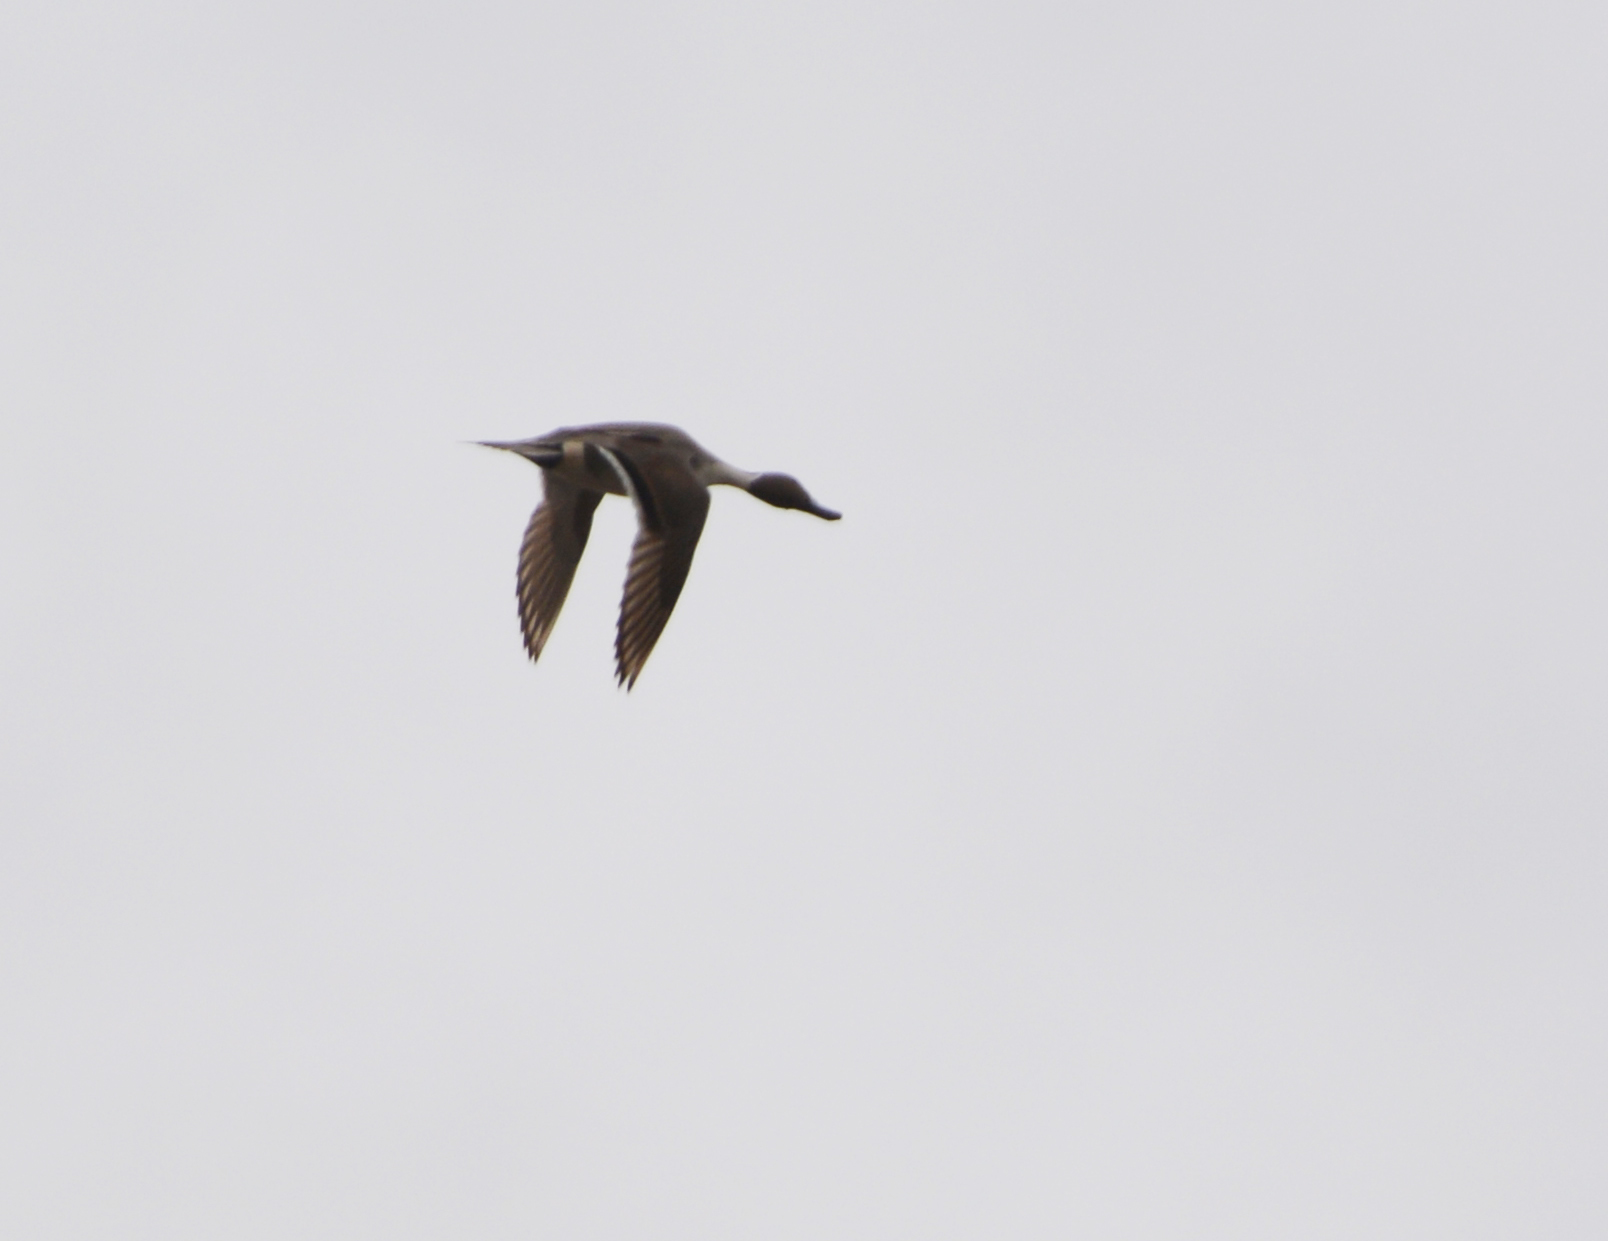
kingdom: Animalia
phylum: Chordata
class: Aves
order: Anseriformes
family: Anatidae
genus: Anas
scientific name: Anas acuta
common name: Northern pintail
